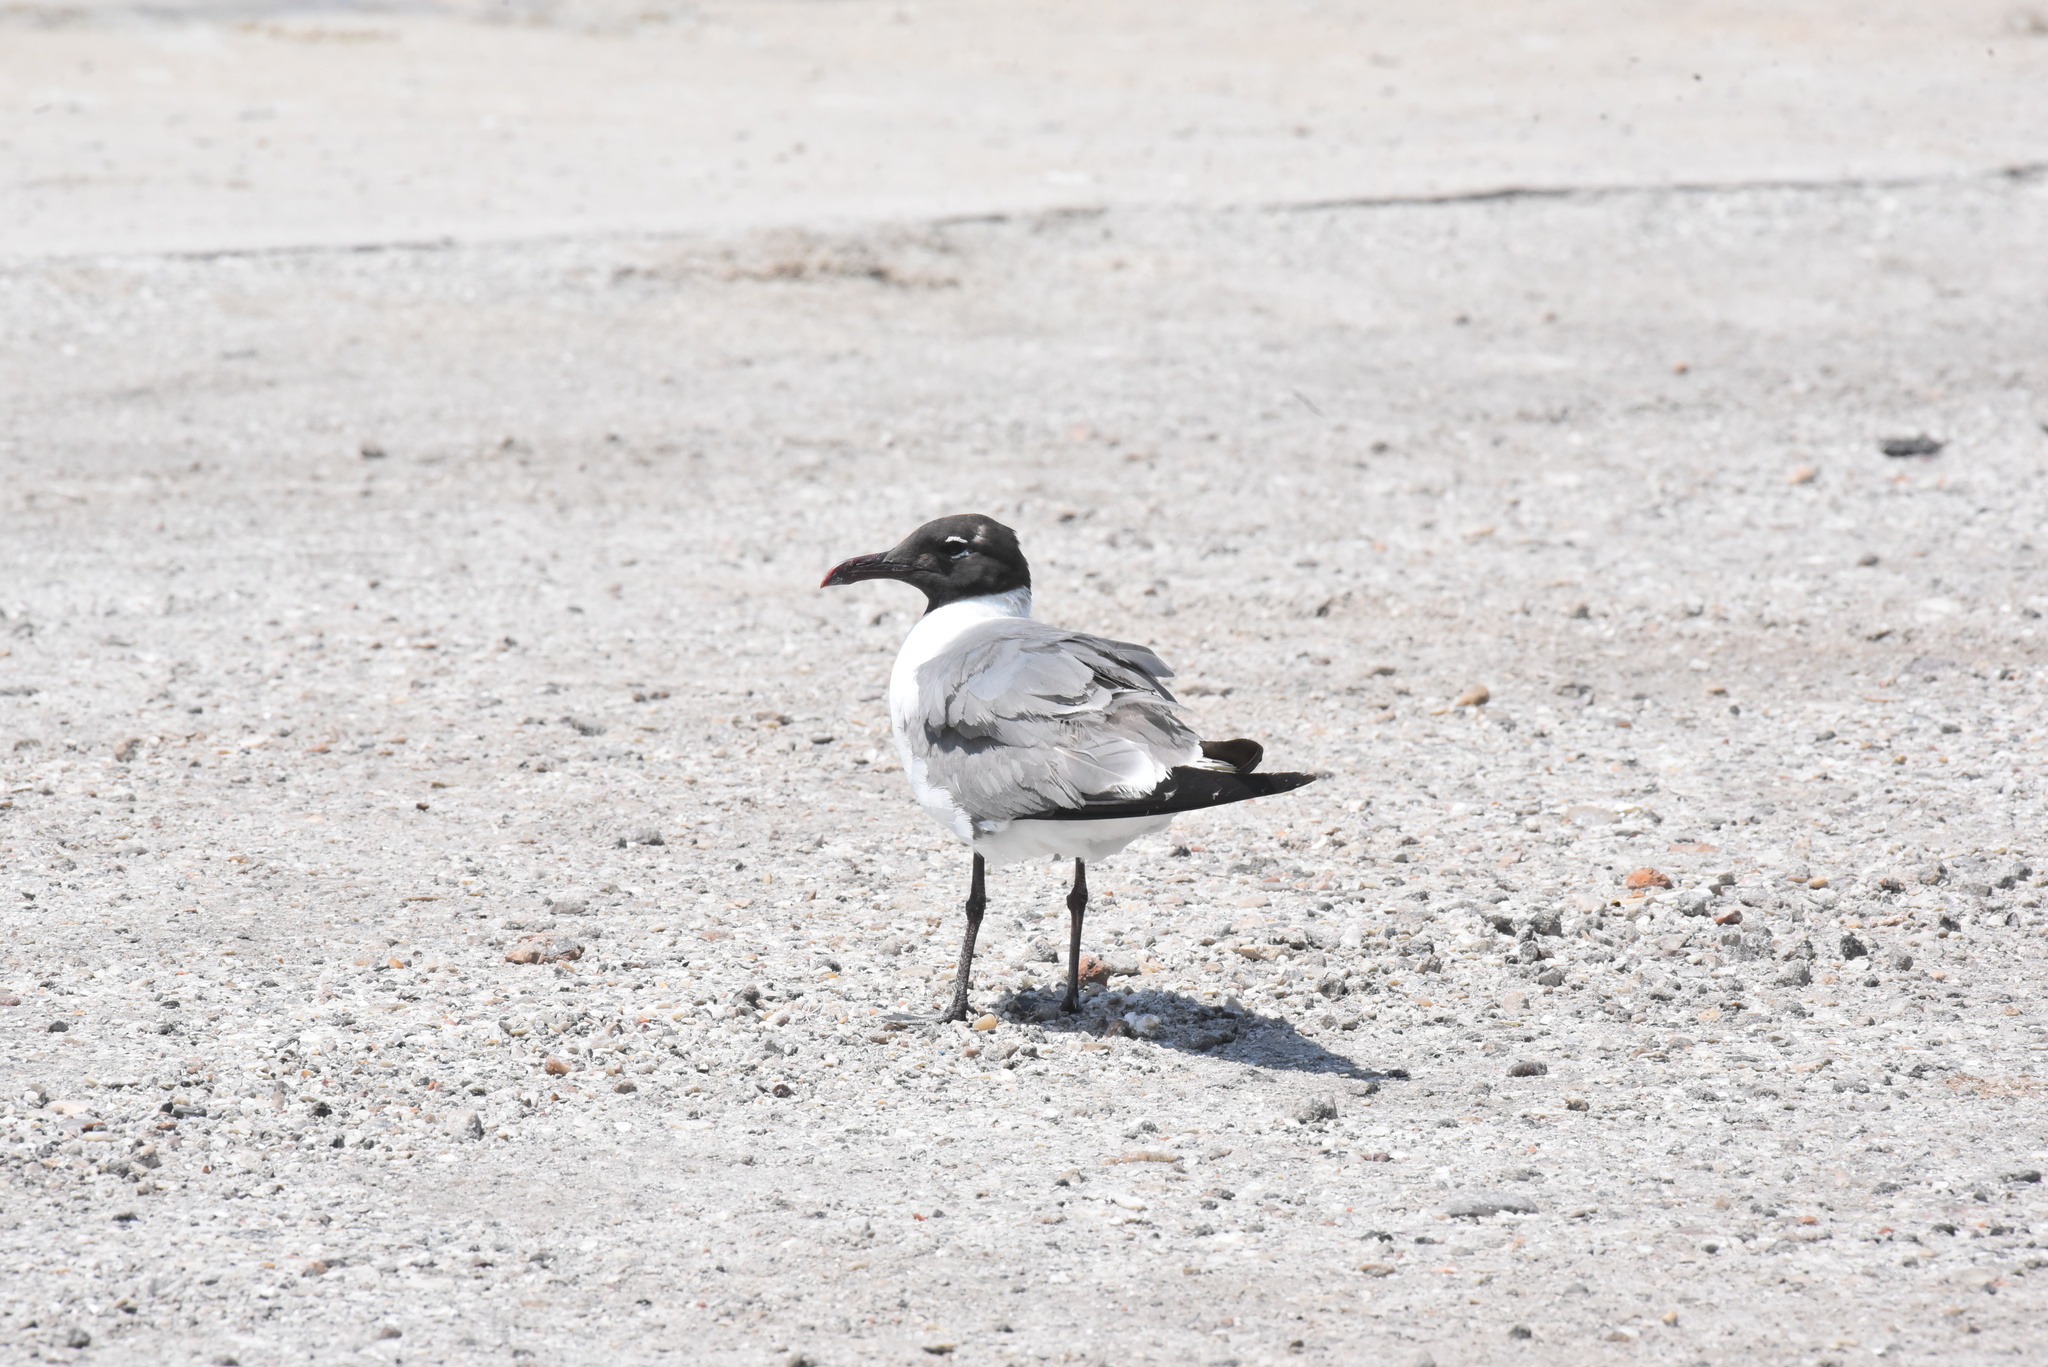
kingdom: Animalia
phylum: Chordata
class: Aves
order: Charadriiformes
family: Laridae
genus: Leucophaeus
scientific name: Leucophaeus atricilla
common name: Laughing gull
